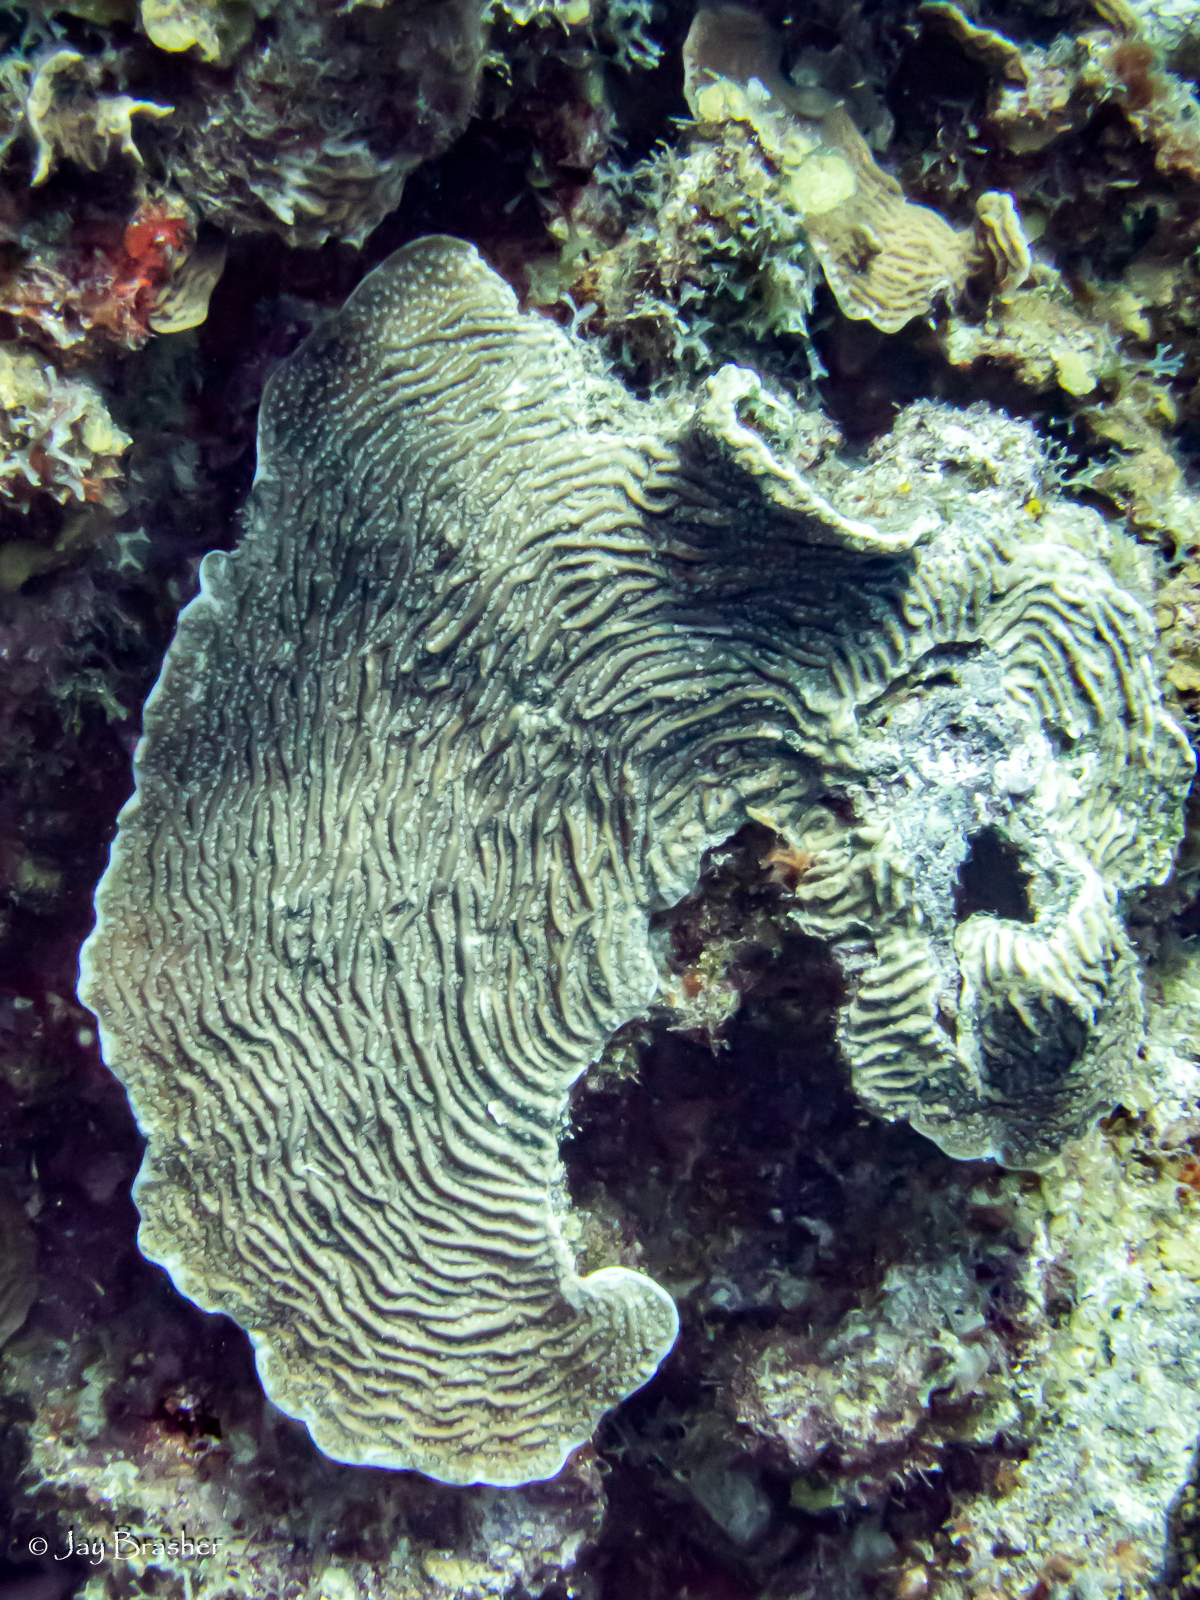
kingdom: Animalia
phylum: Cnidaria
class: Anthozoa
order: Scleractinia
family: Agariciidae
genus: Agaricia
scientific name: Agaricia lamarcki
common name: Lamarck's sheet coral
